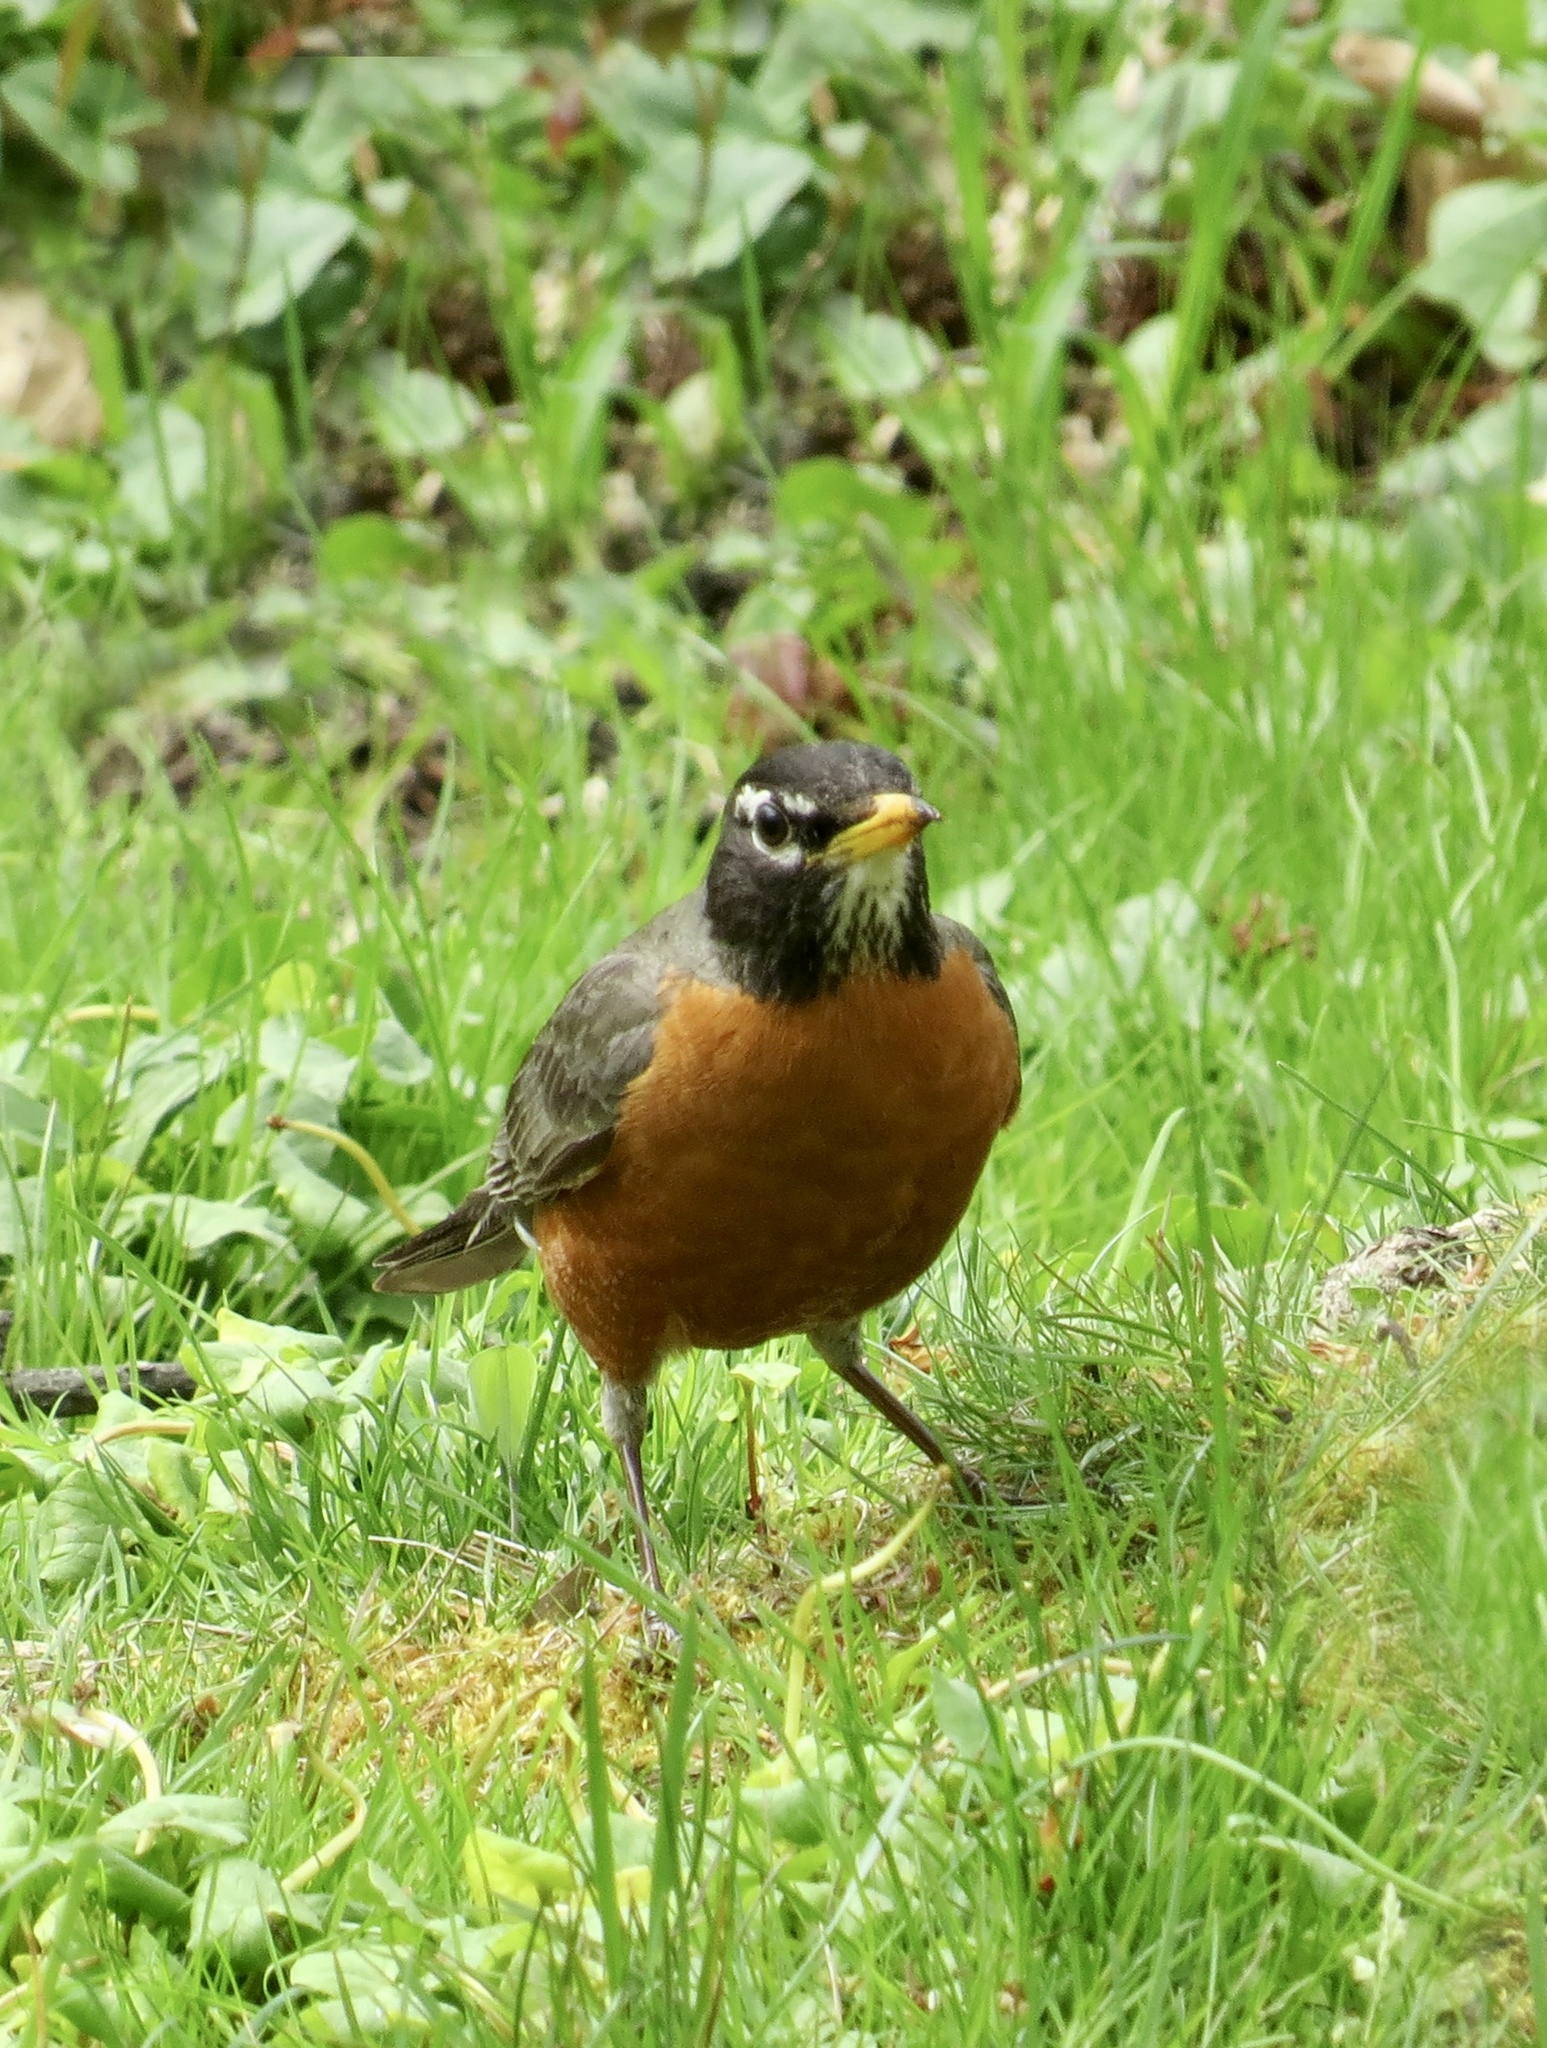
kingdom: Animalia
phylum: Chordata
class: Aves
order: Passeriformes
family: Turdidae
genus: Turdus
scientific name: Turdus migratorius
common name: American robin
